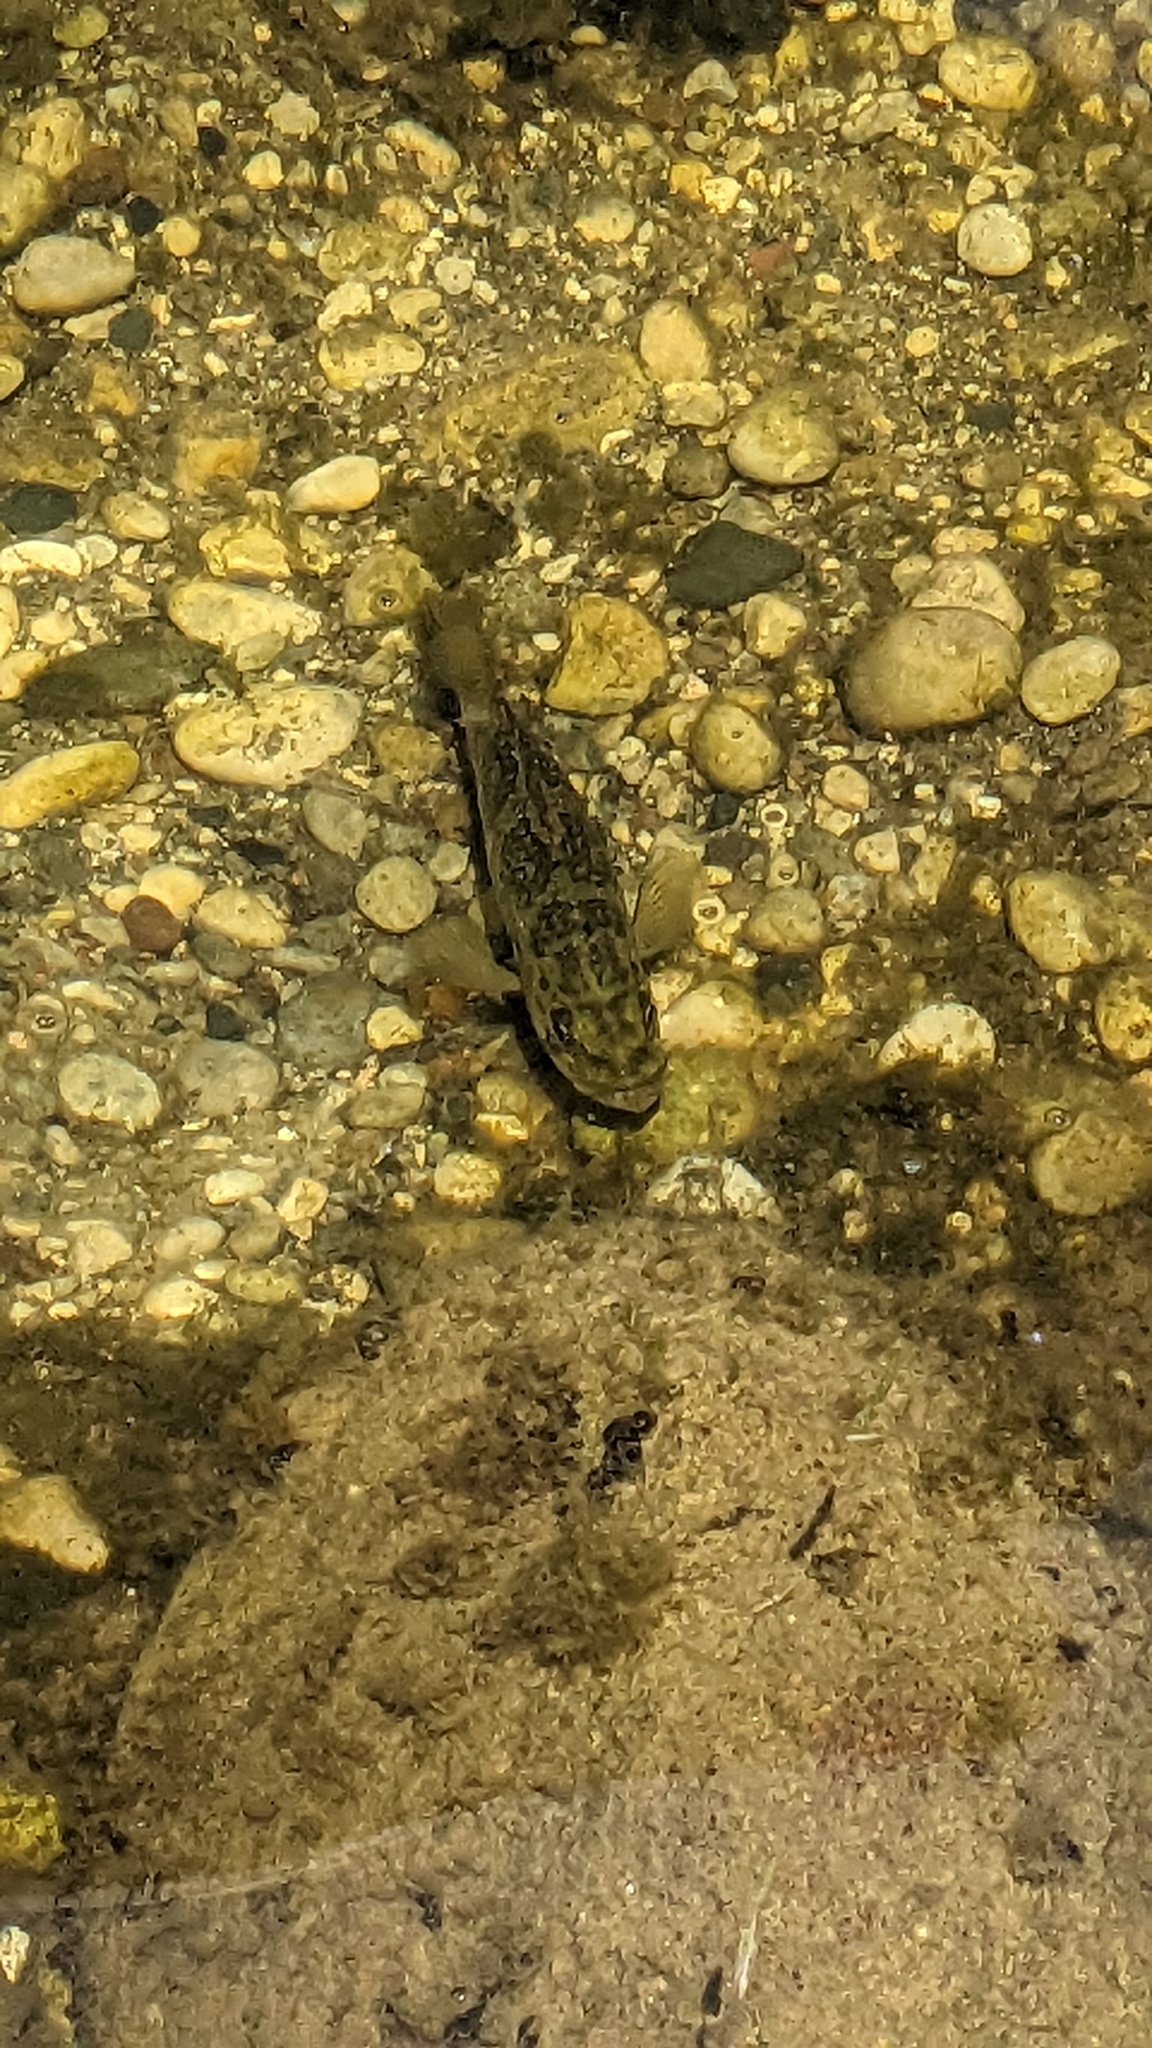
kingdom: Animalia
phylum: Chordata
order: Perciformes
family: Centrarchidae
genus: Ambloplites
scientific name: Ambloplites rupestris
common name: Rock bass
